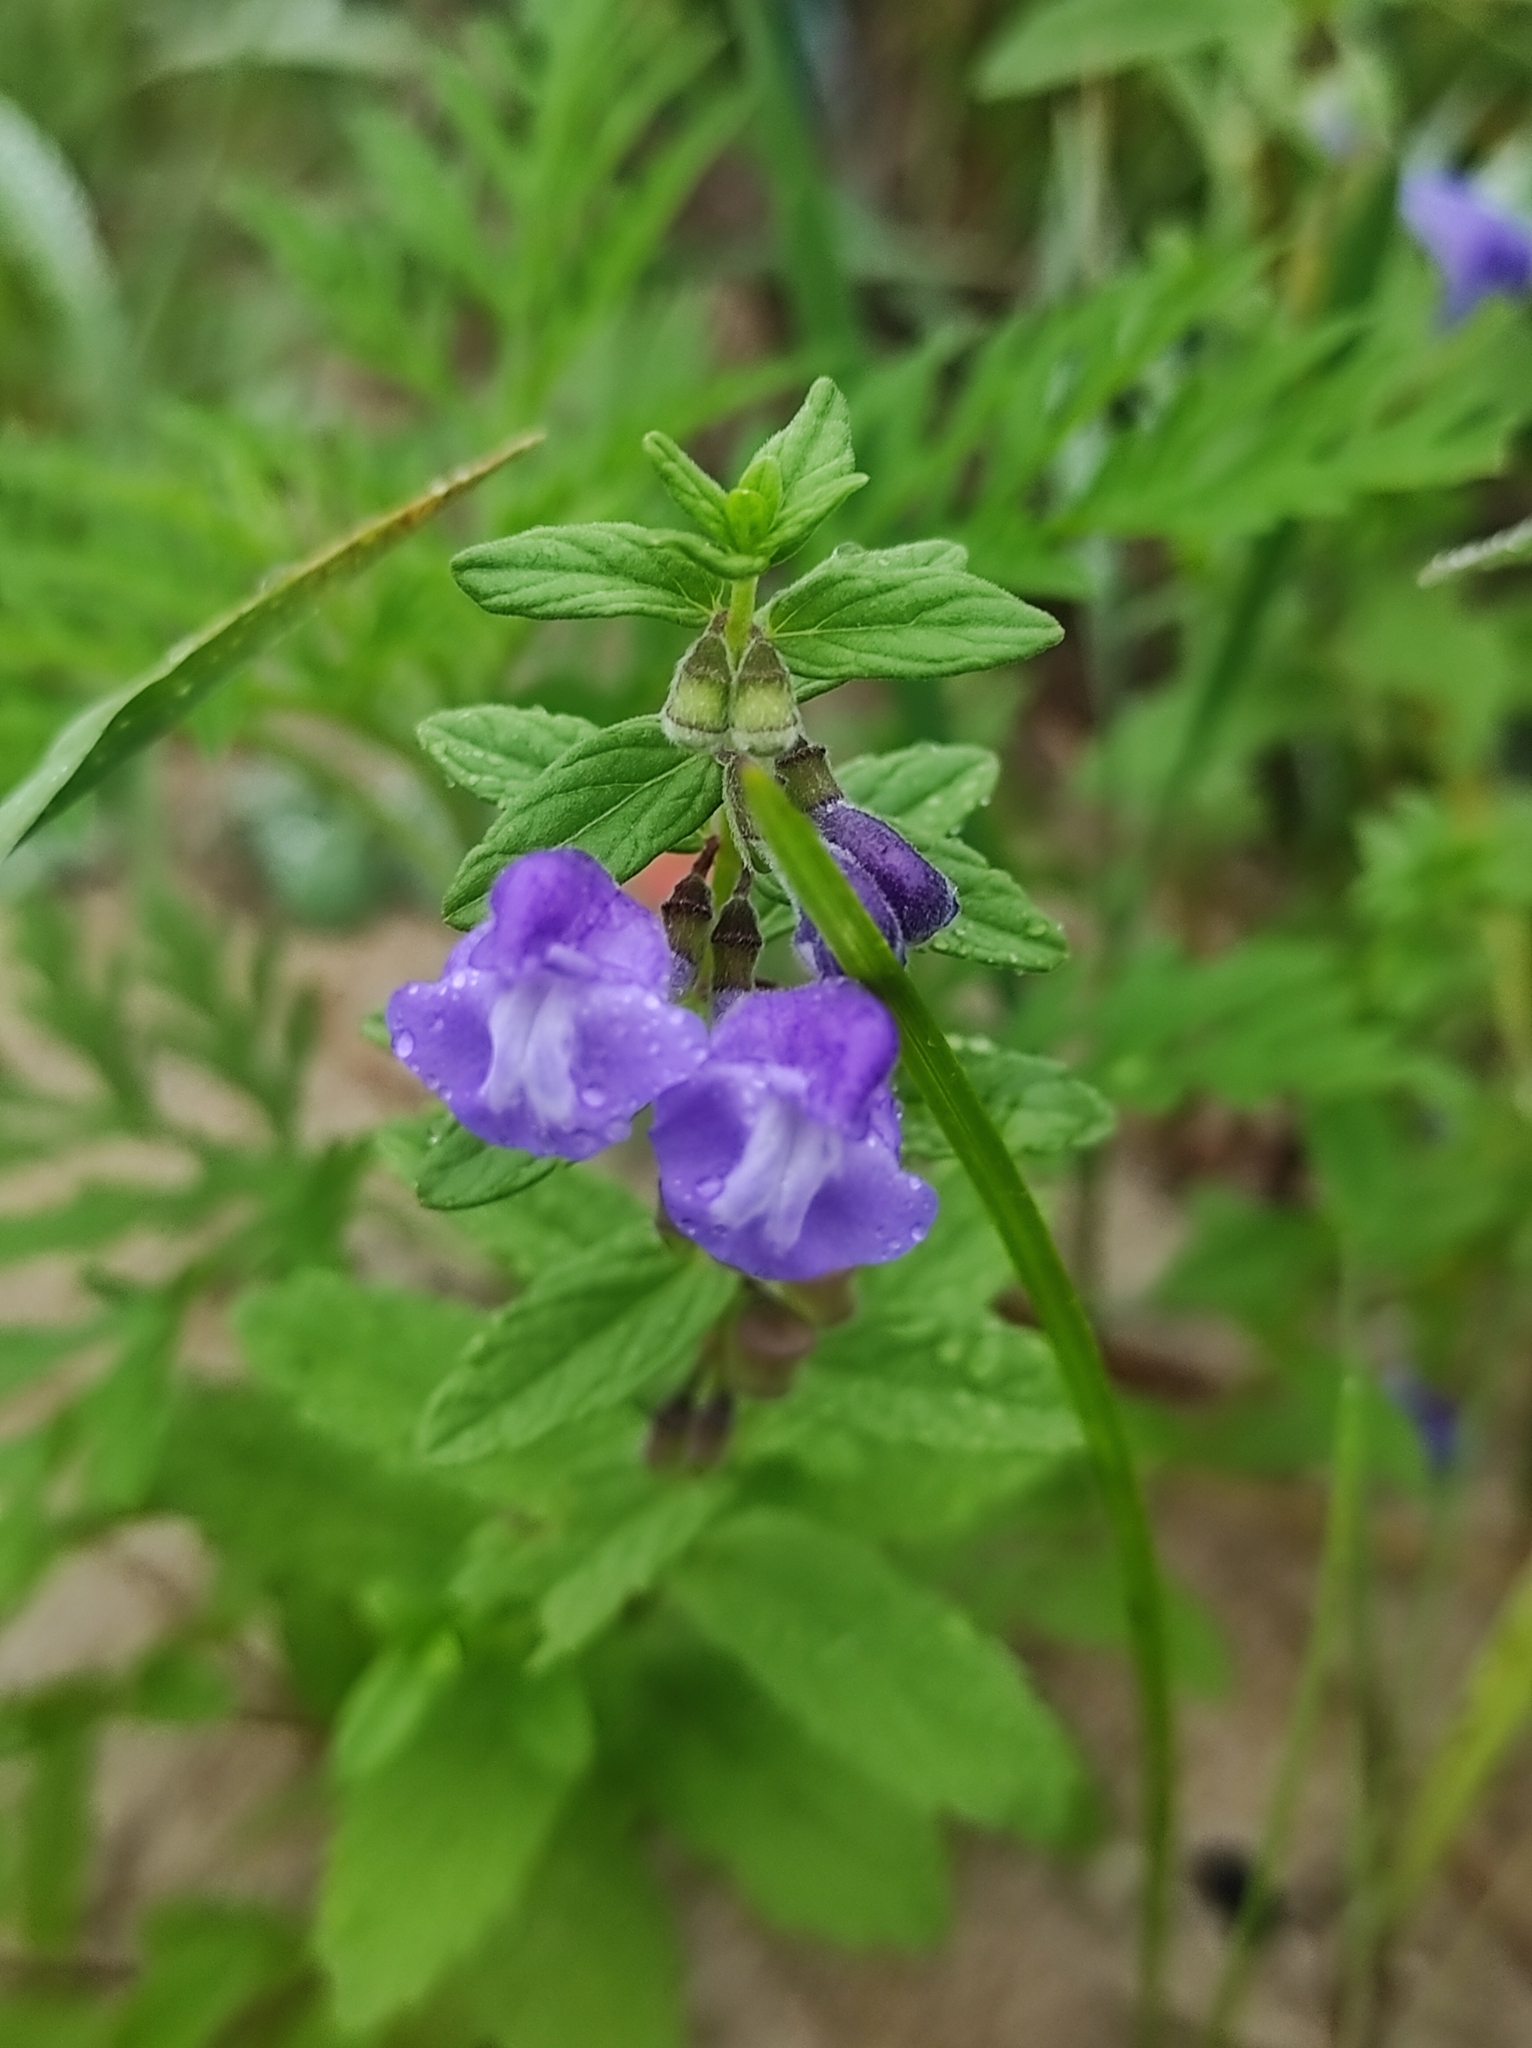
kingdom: Plantae
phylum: Tracheophyta
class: Magnoliopsida
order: Lamiales
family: Lamiaceae
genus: Scutellaria
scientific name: Scutellaria strigillosa
